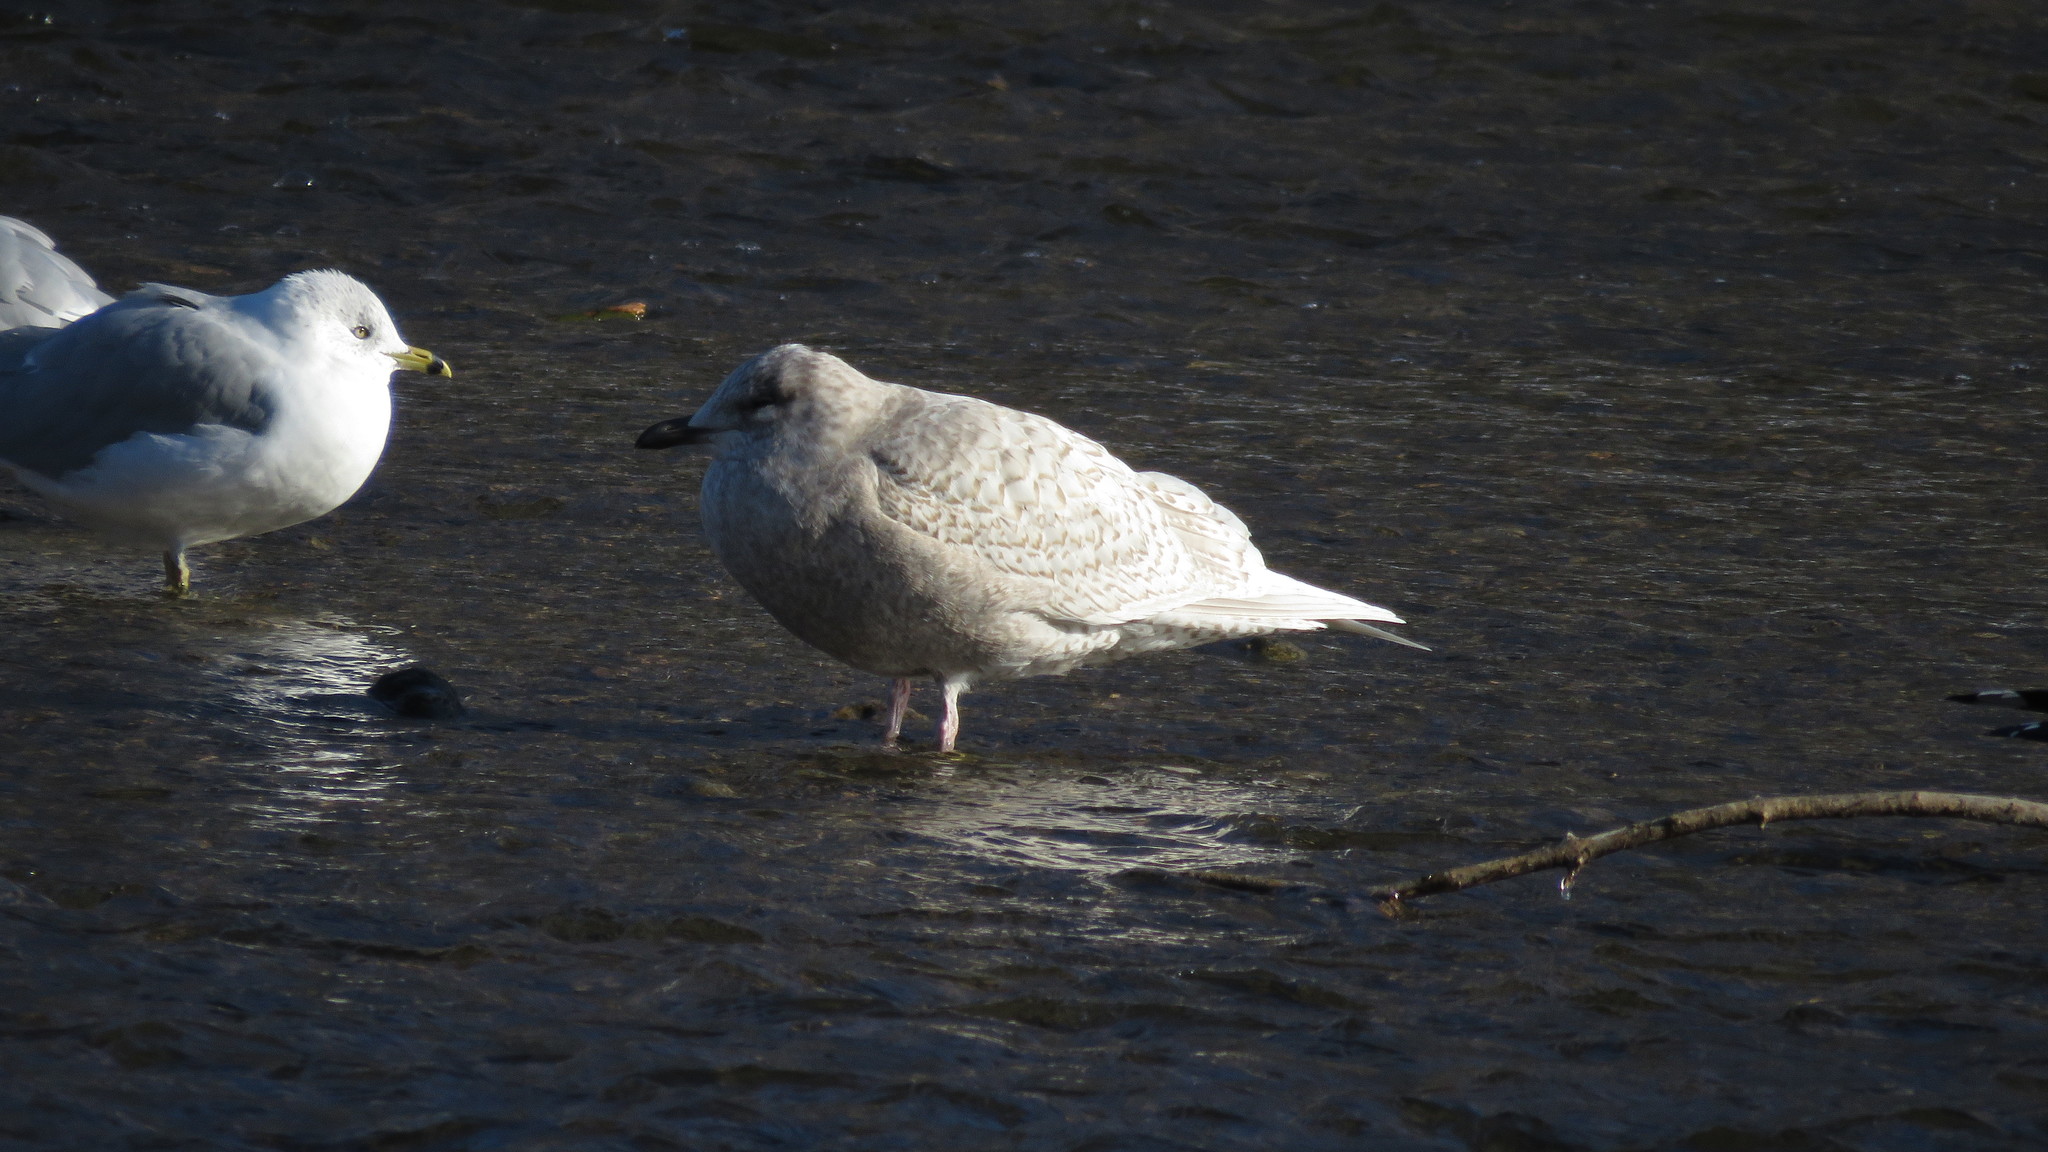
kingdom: Animalia
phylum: Chordata
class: Aves
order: Charadriiformes
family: Laridae
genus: Larus
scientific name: Larus glaucoides
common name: Iceland gull
